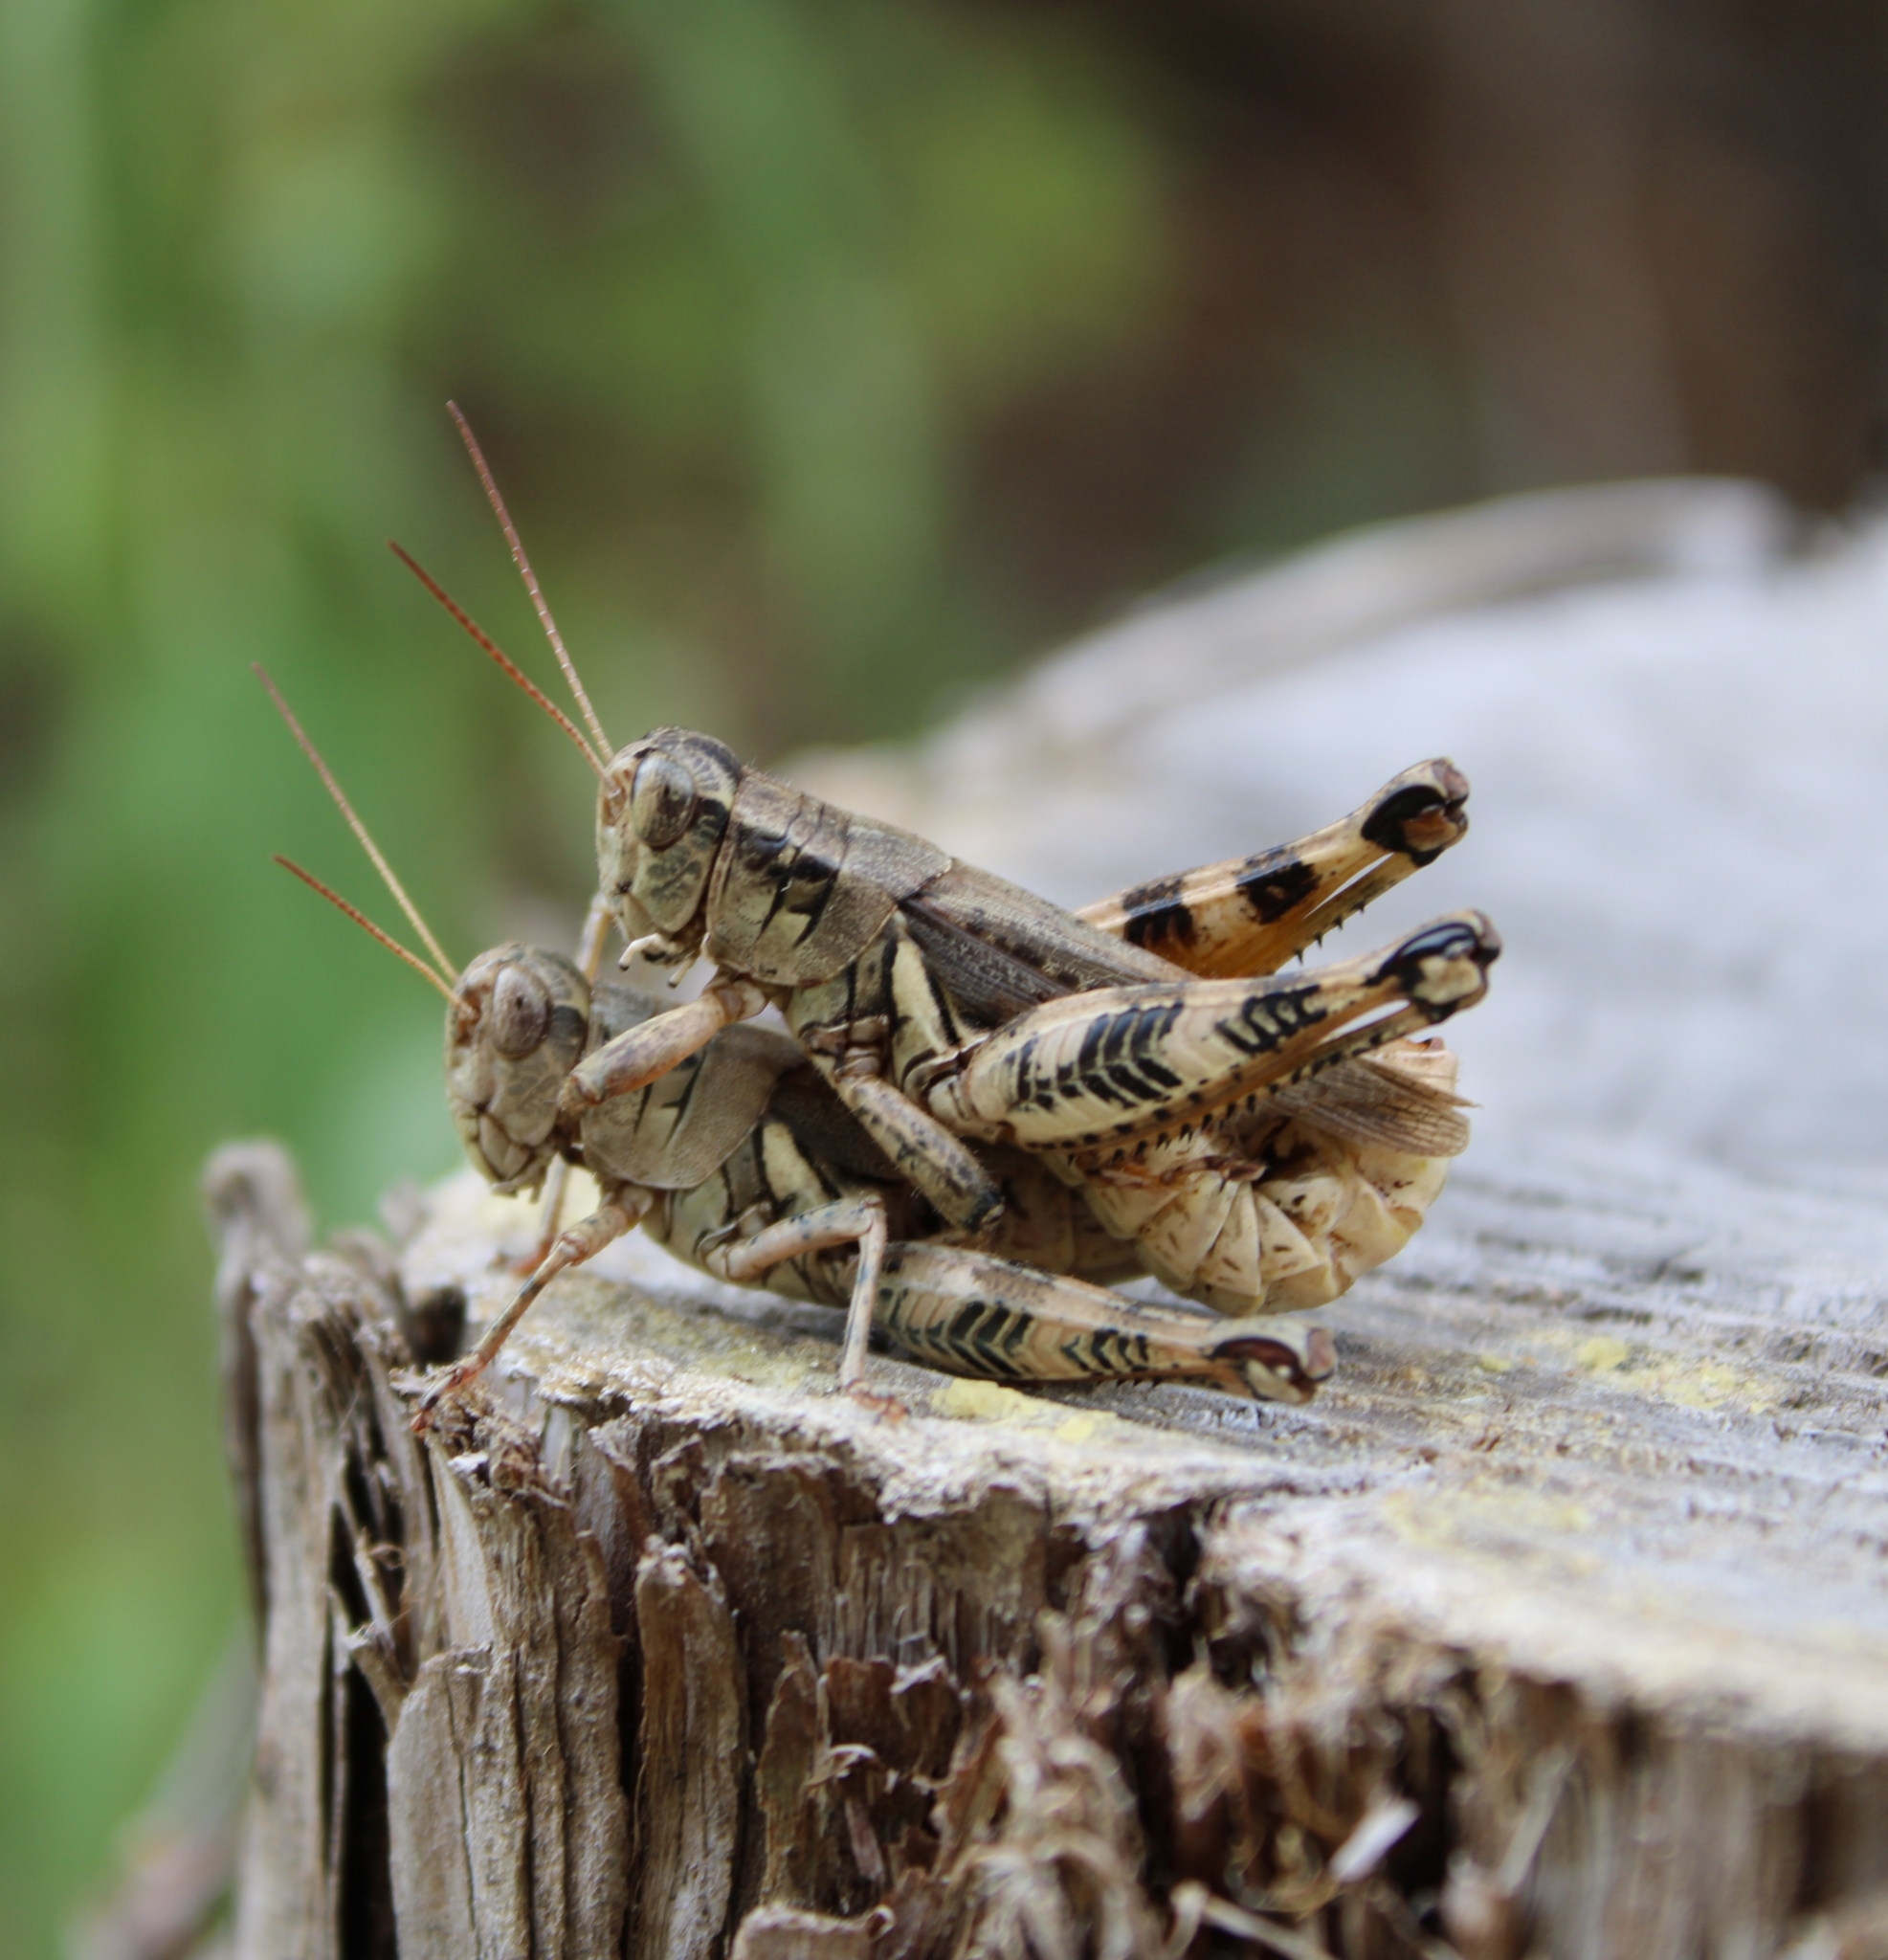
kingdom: Animalia
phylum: Arthropoda
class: Insecta
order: Orthoptera
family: Acrididae
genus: Melanoplus
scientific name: Melanoplus ponderosus
